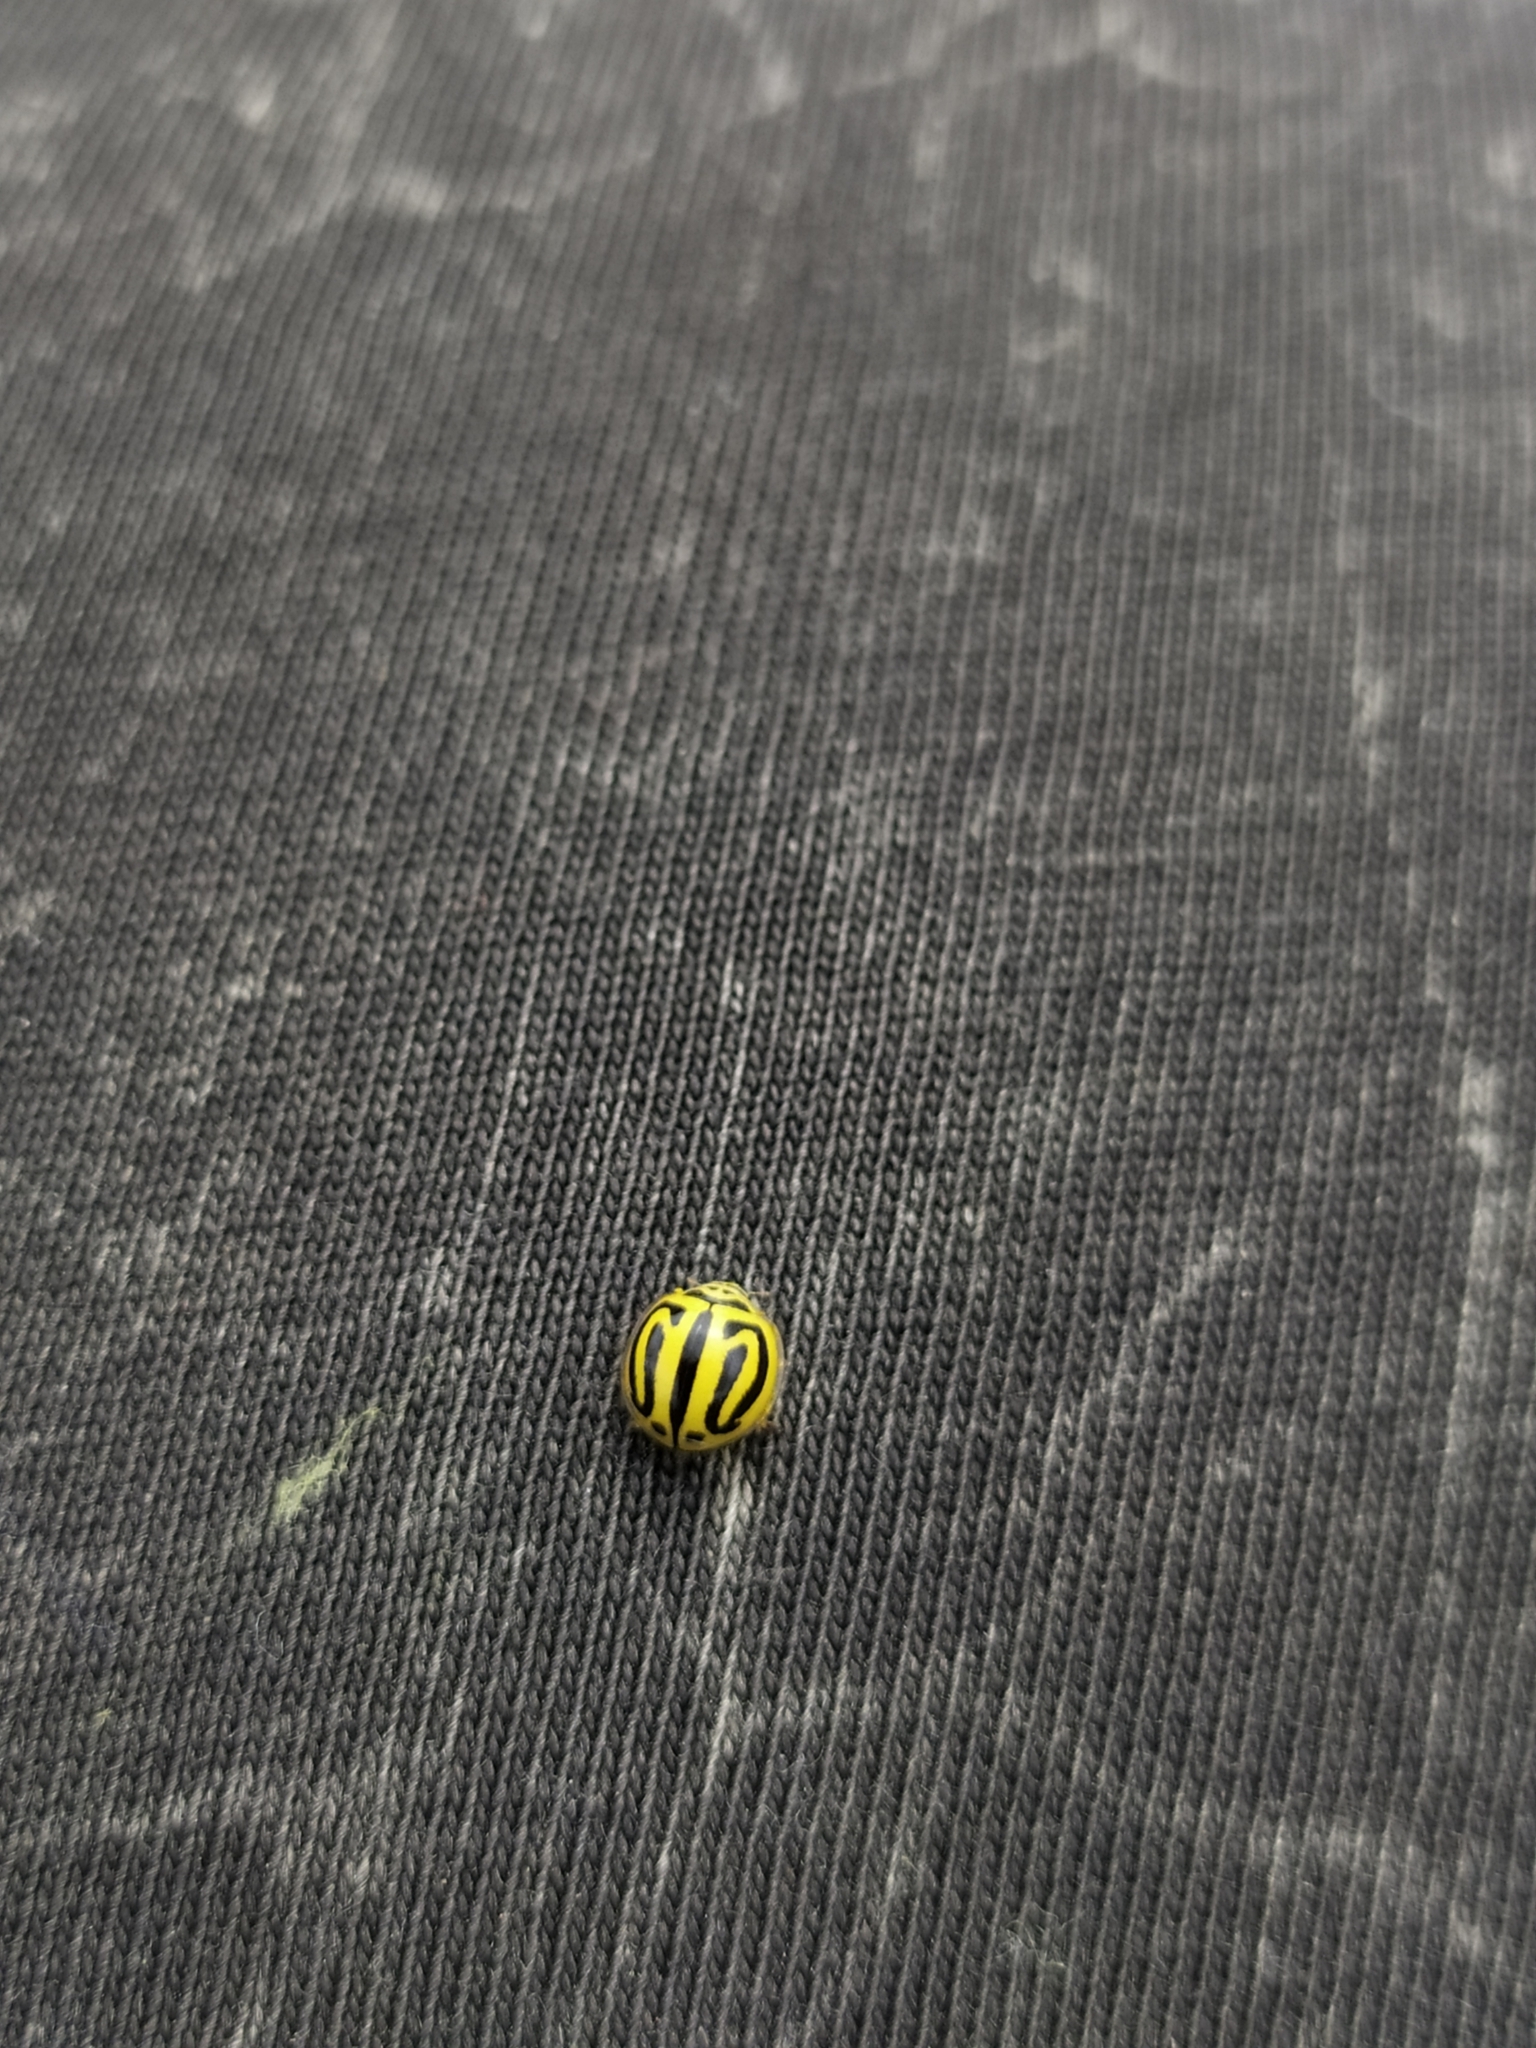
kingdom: Animalia
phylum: Arthropoda
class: Insecta
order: Coleoptera
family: Coccinellidae
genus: Anegleis
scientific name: Anegleis cardoni
